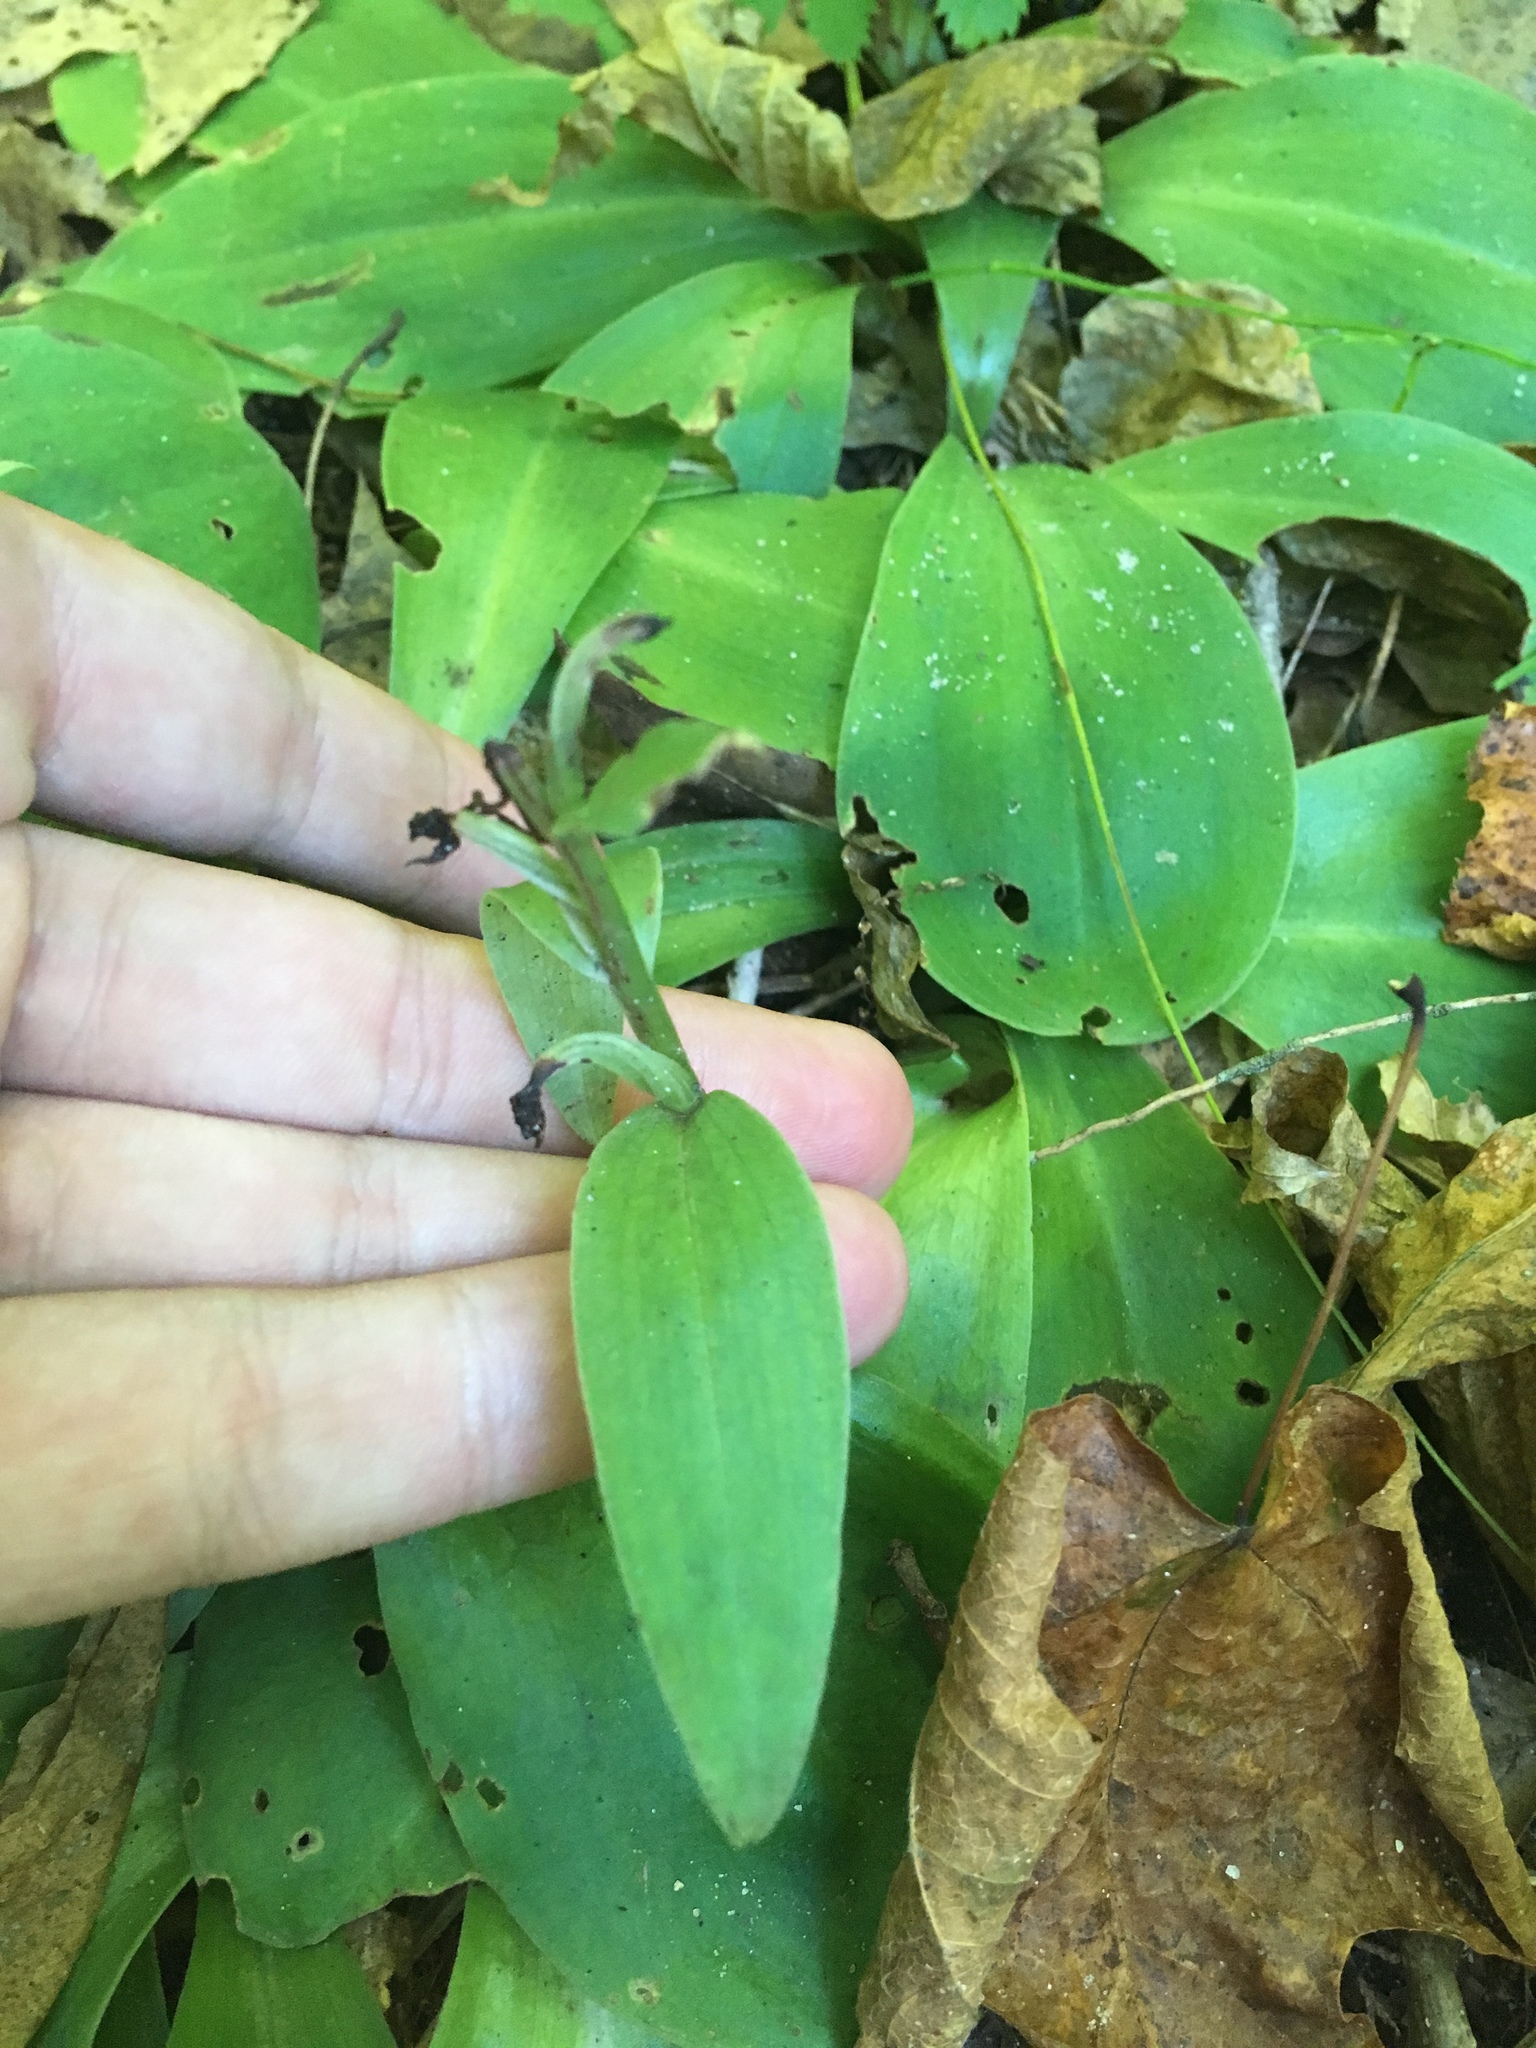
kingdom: Plantae
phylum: Tracheophyta
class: Liliopsida
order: Asparagales
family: Orchidaceae
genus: Galearis
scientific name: Galearis spectabilis
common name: Purple-hooded orchis
